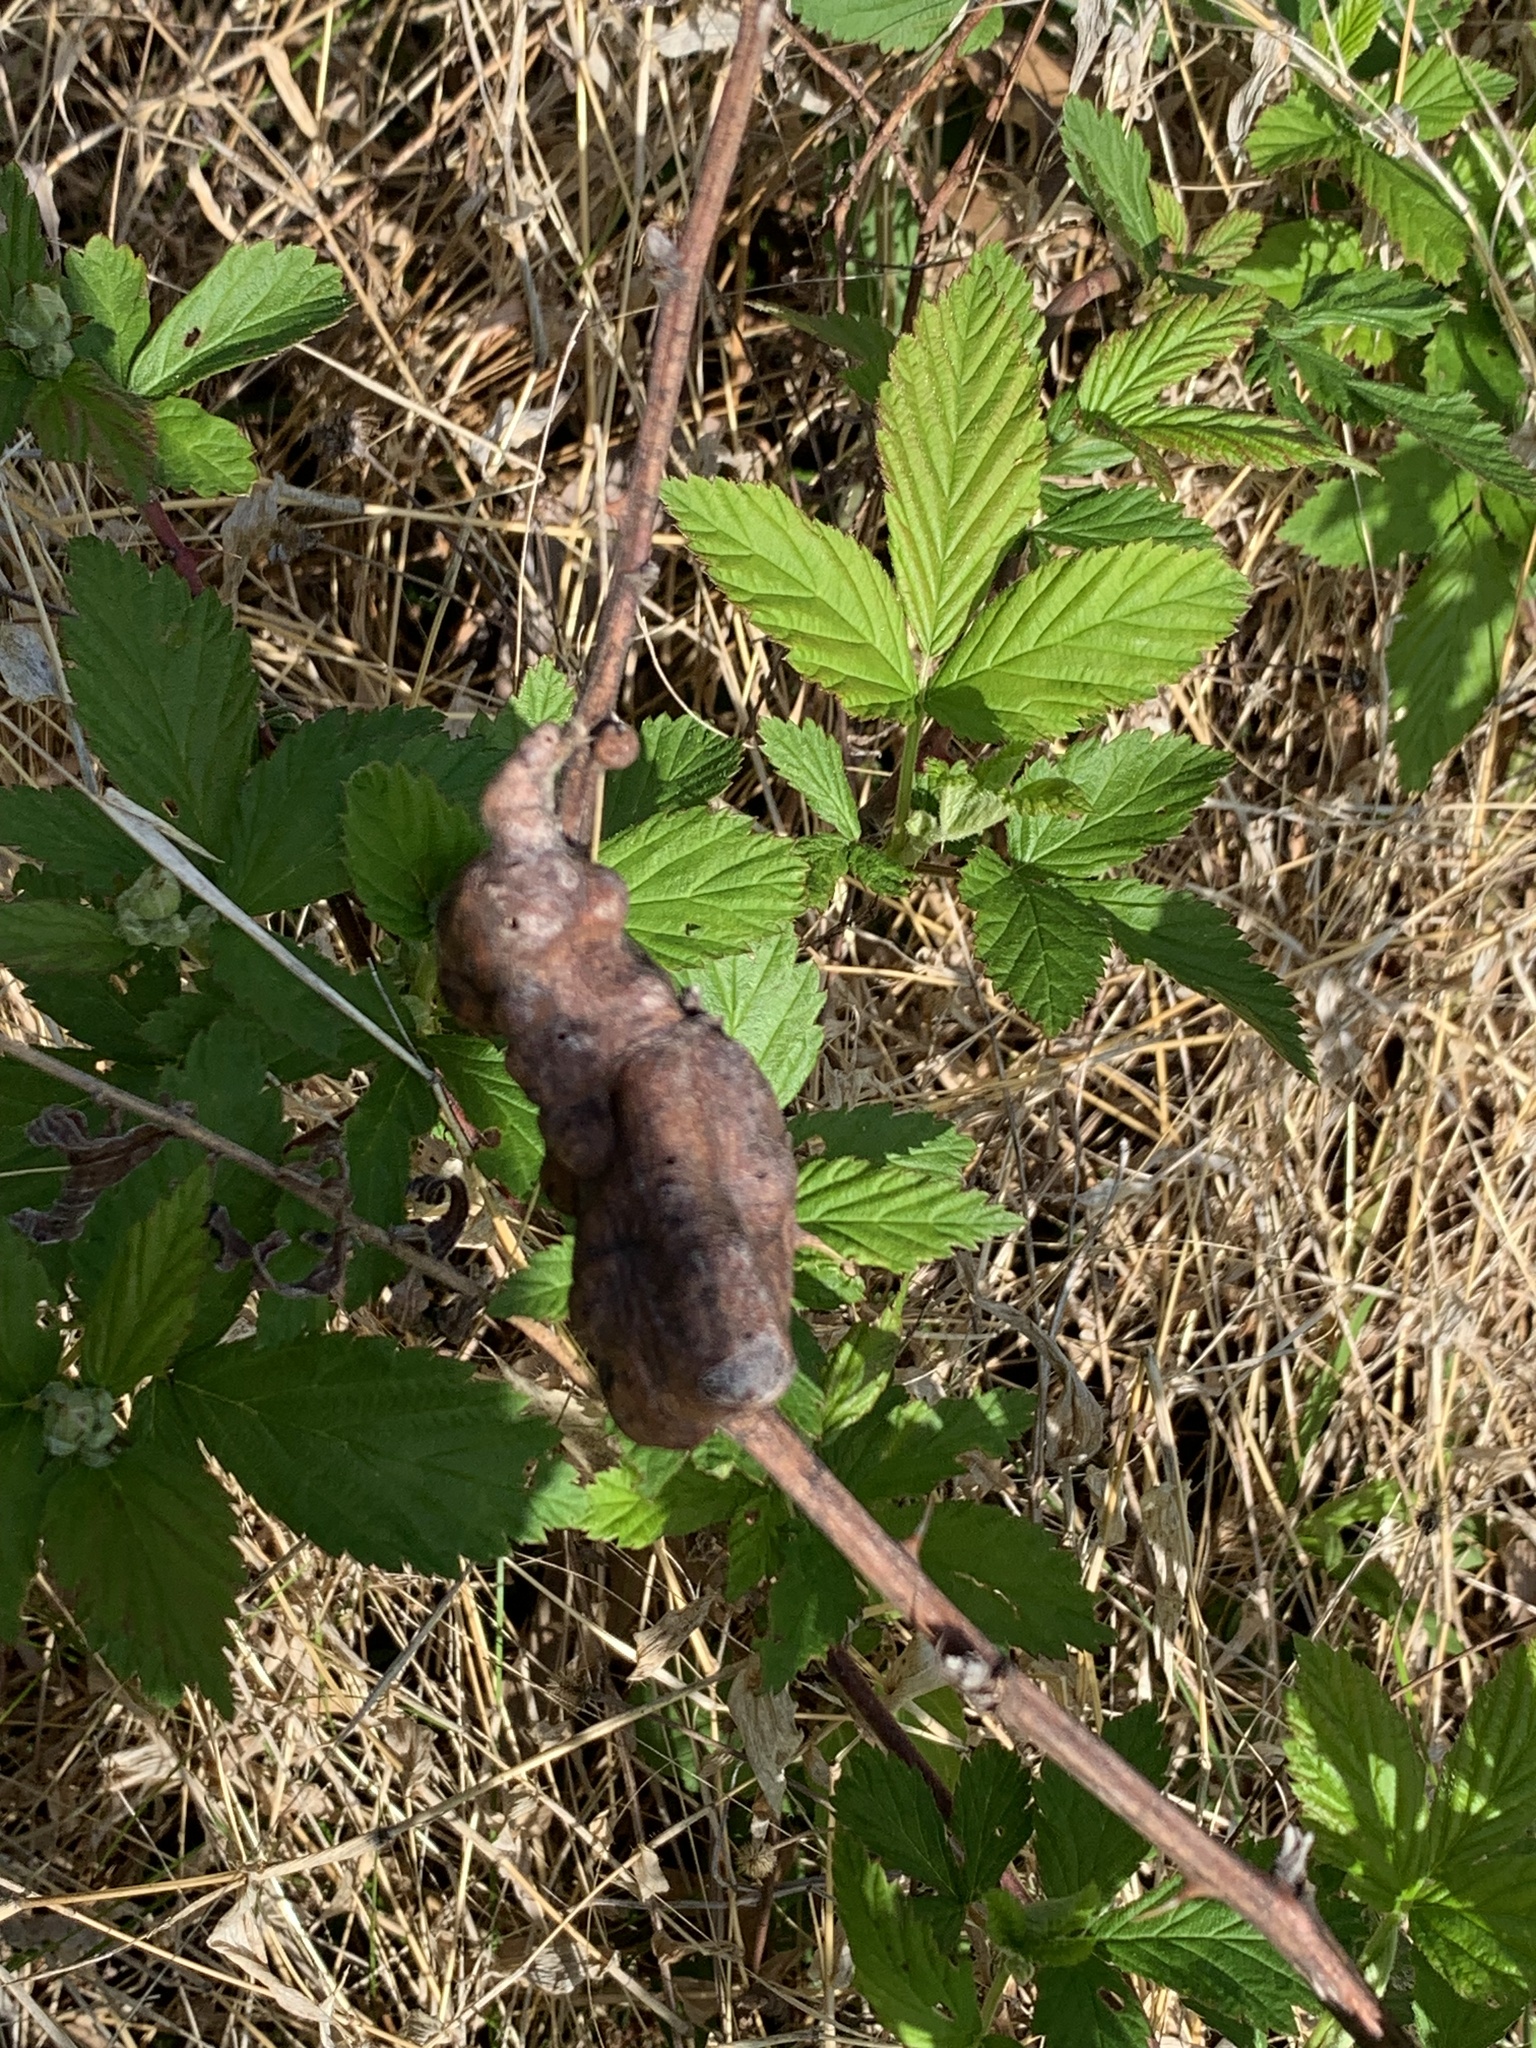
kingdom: Animalia
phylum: Arthropoda
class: Insecta
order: Hymenoptera
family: Cynipidae
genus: Diastrophus
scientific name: Diastrophus
